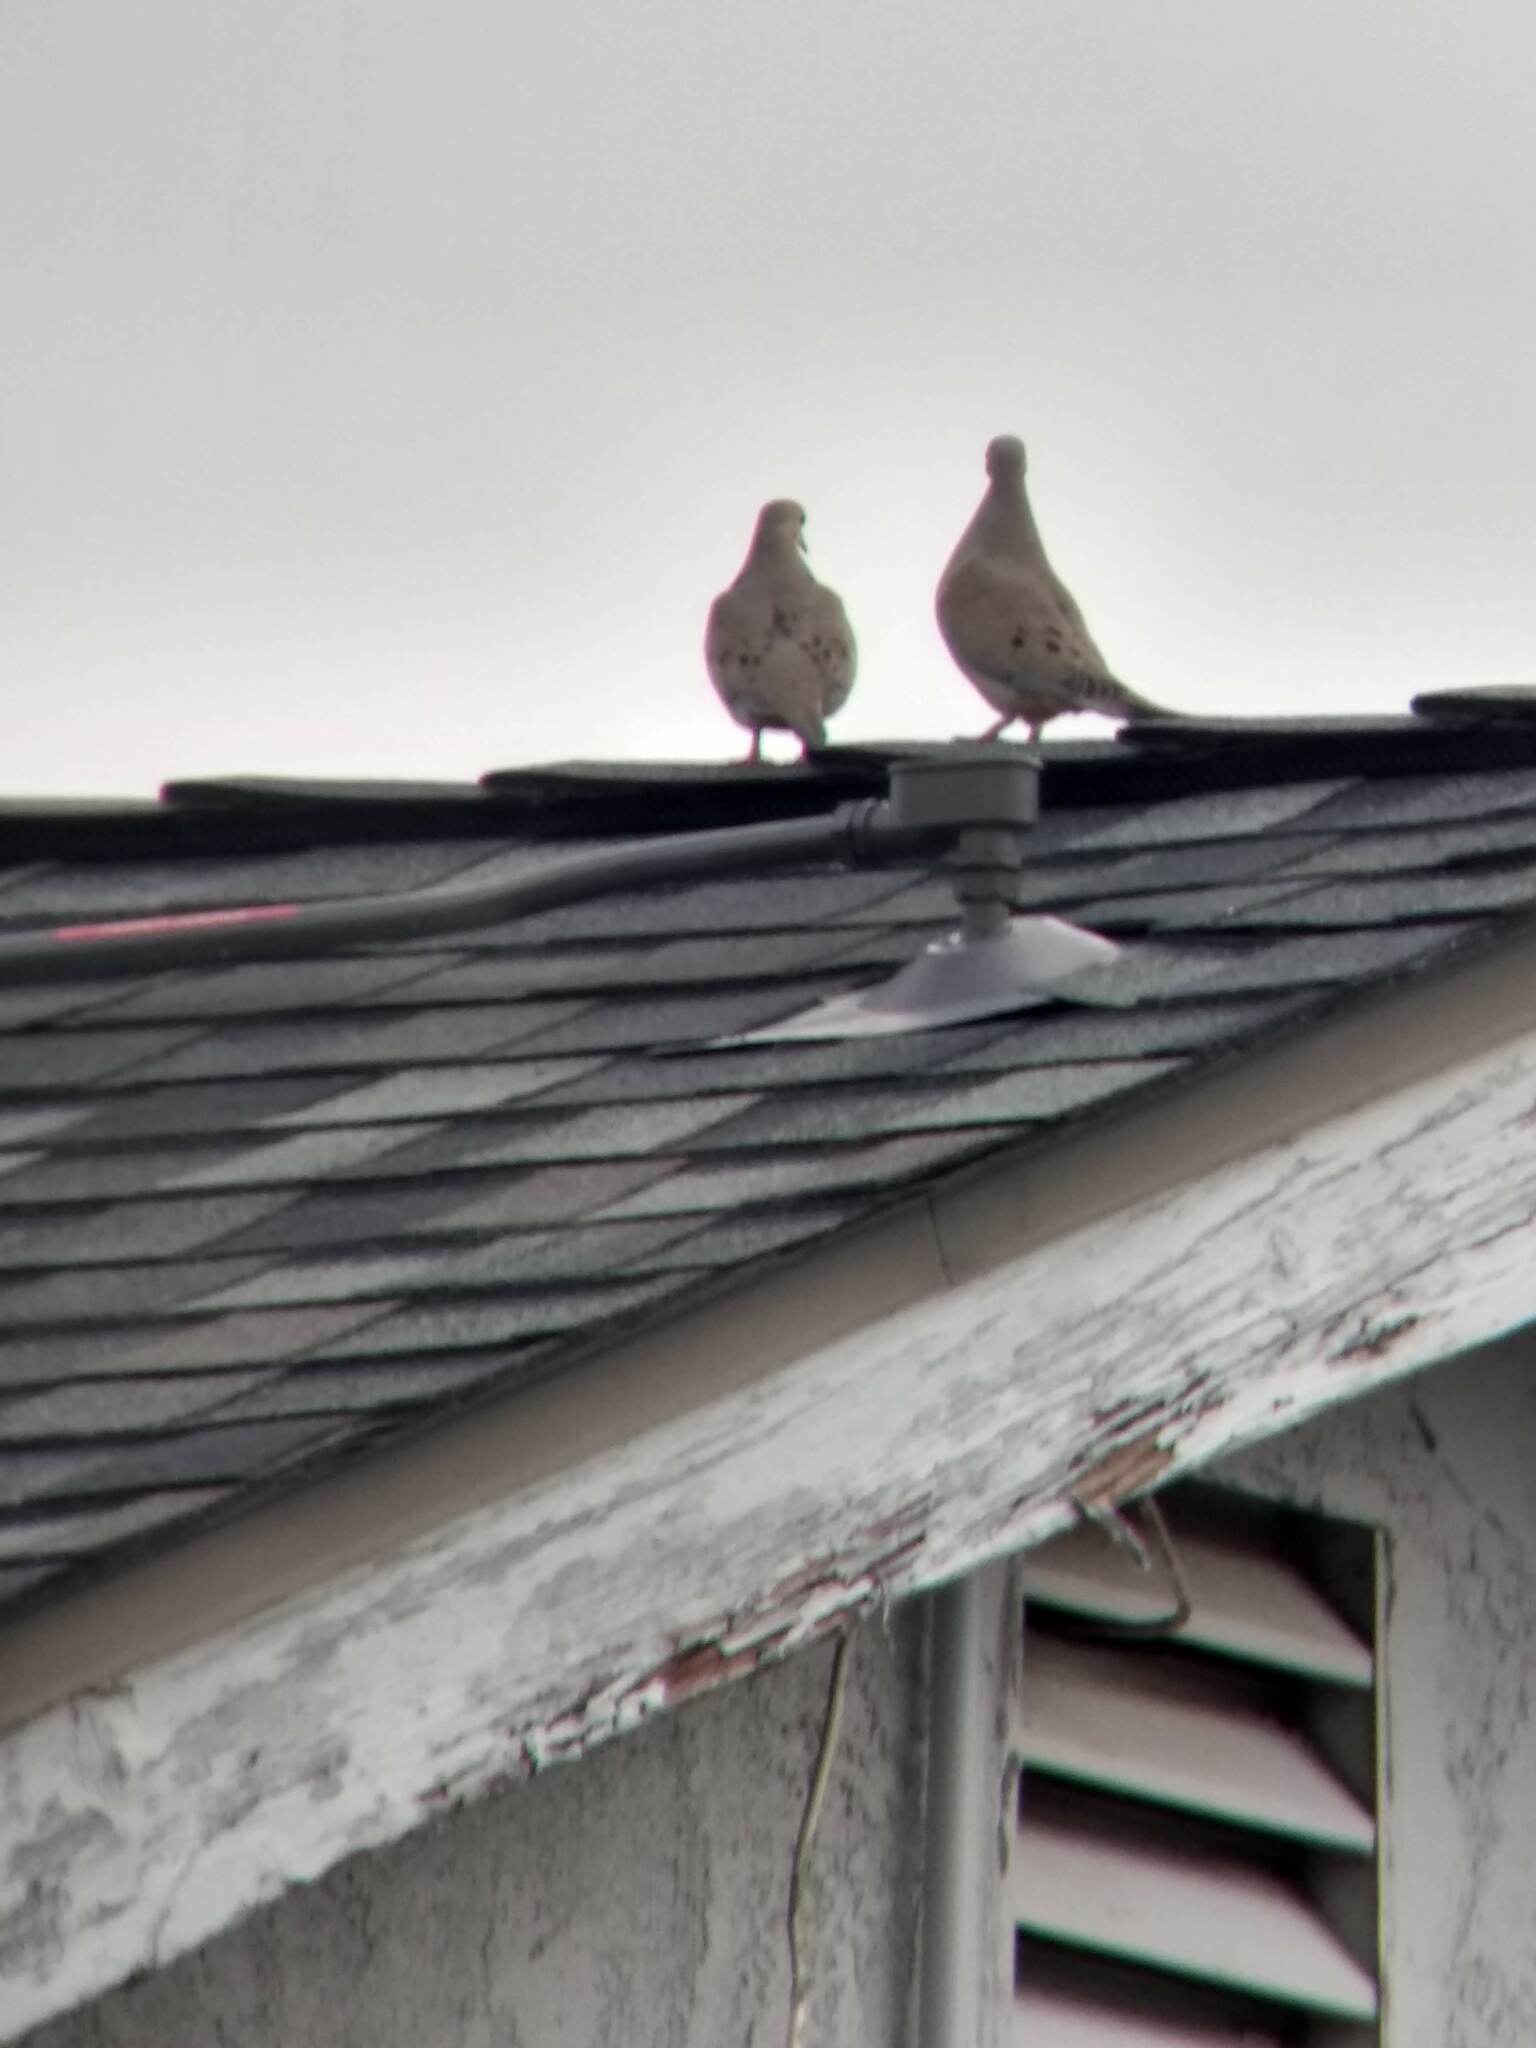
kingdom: Animalia
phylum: Chordata
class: Aves
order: Columbiformes
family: Columbidae
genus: Zenaida
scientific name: Zenaida macroura
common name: Mourning dove
